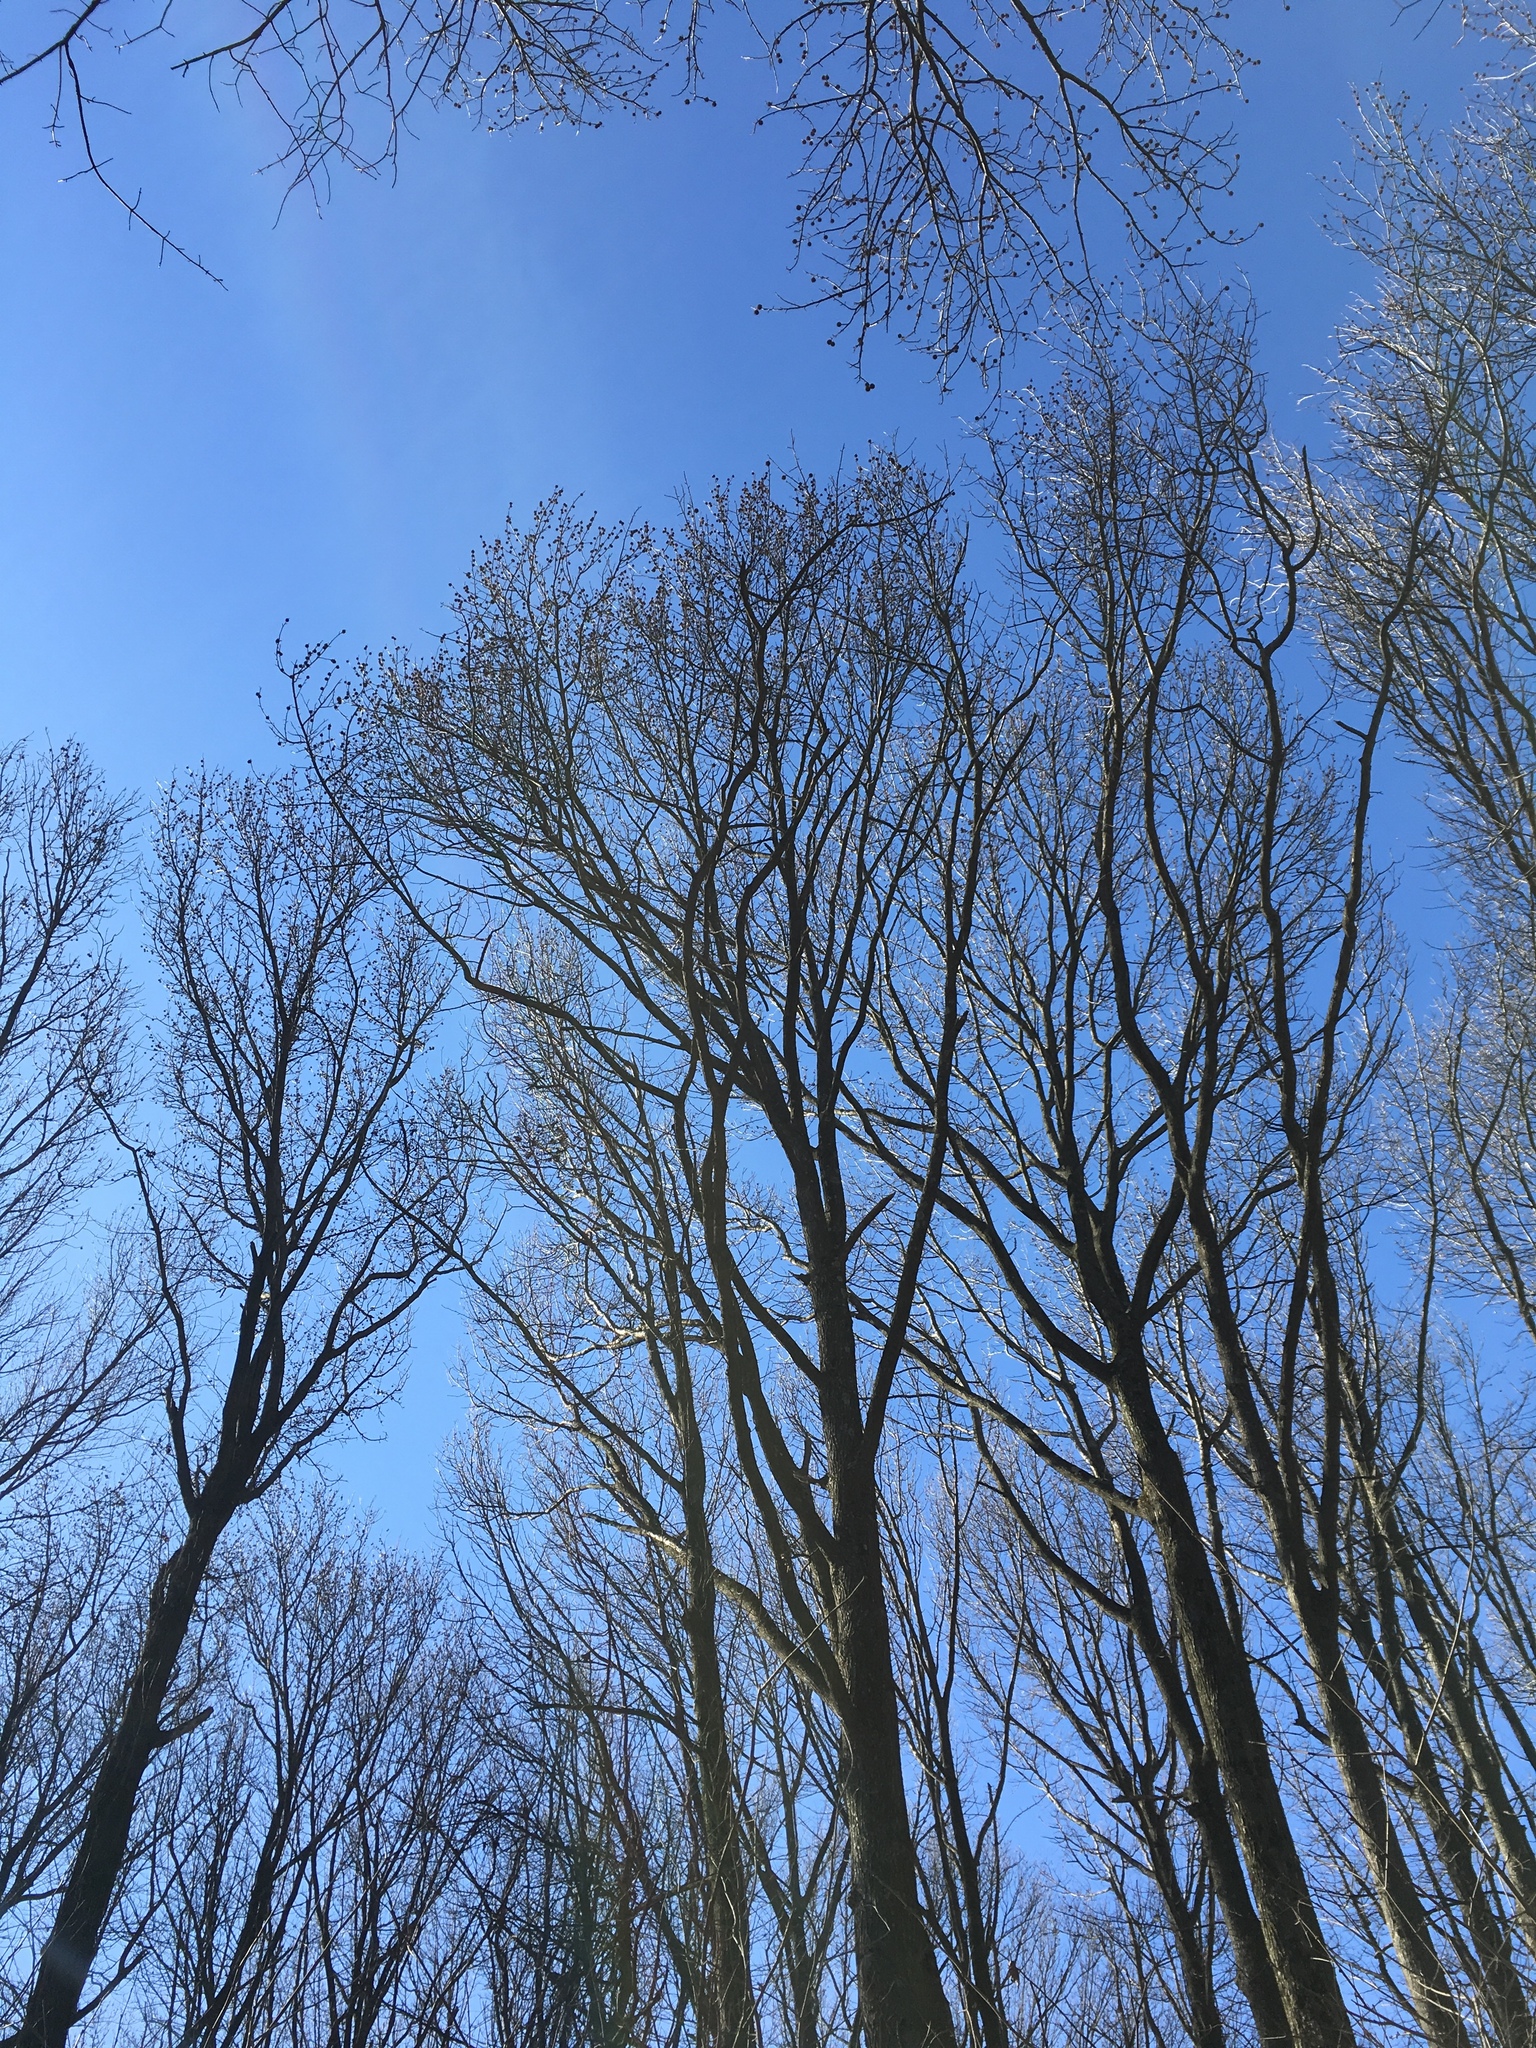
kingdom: Plantae
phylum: Tracheophyta
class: Magnoliopsida
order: Saxifragales
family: Altingiaceae
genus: Liquidambar
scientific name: Liquidambar styraciflua
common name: Sweet gum
